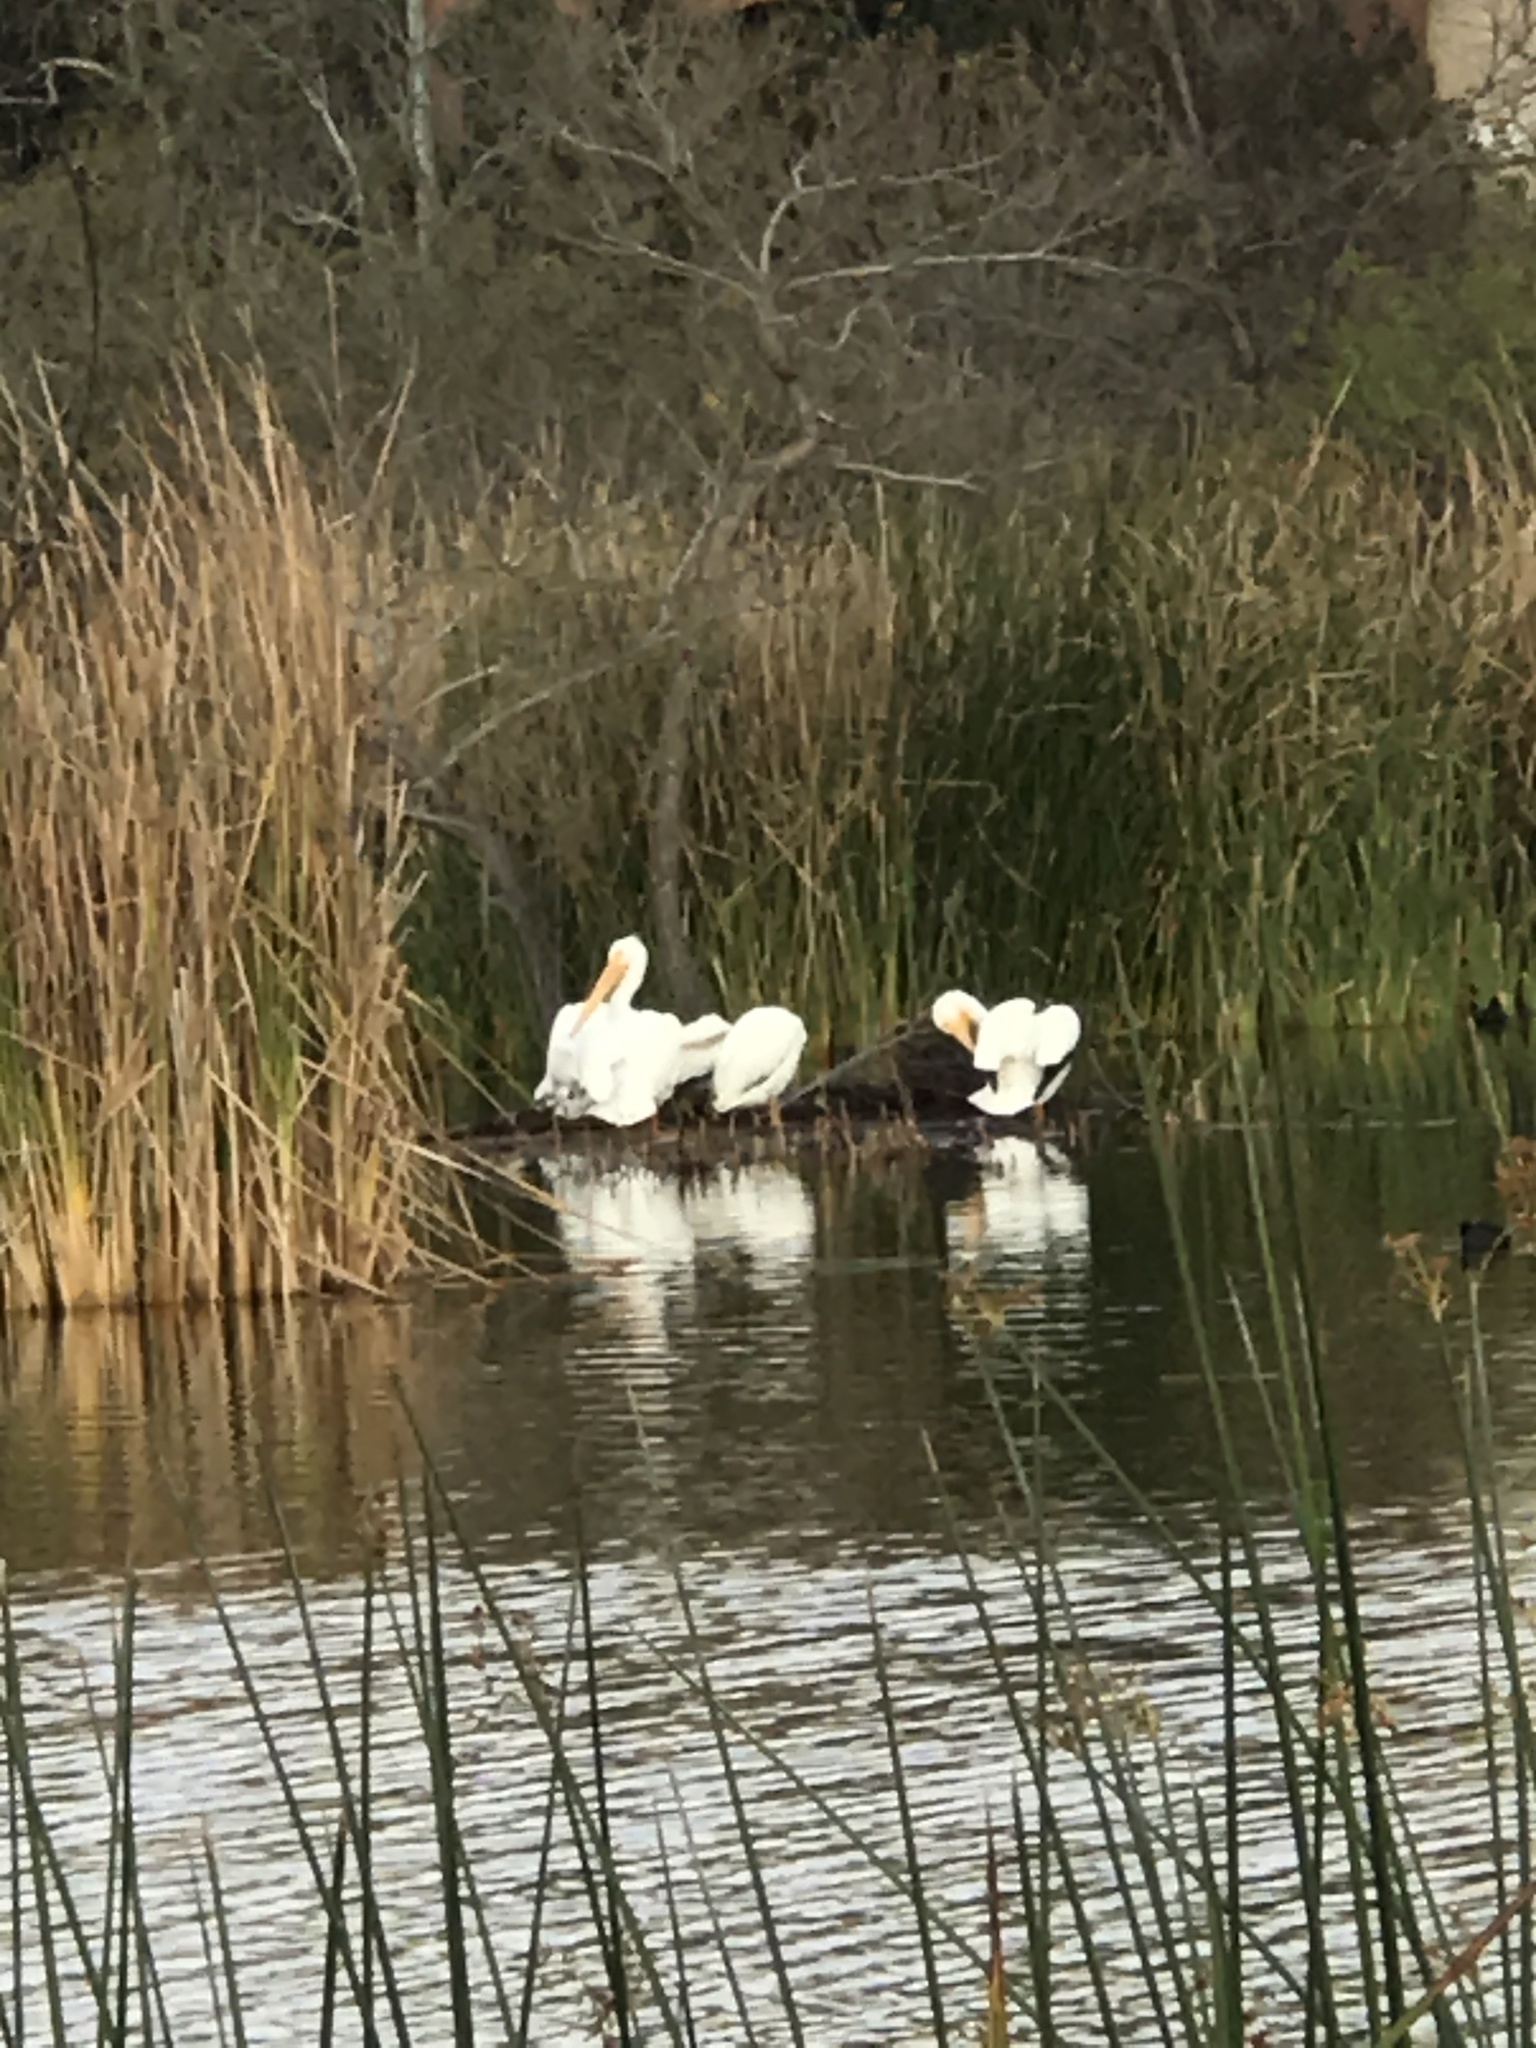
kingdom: Animalia
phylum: Chordata
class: Aves
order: Pelecaniformes
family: Pelecanidae
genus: Pelecanus
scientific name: Pelecanus erythrorhynchos
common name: American white pelican
